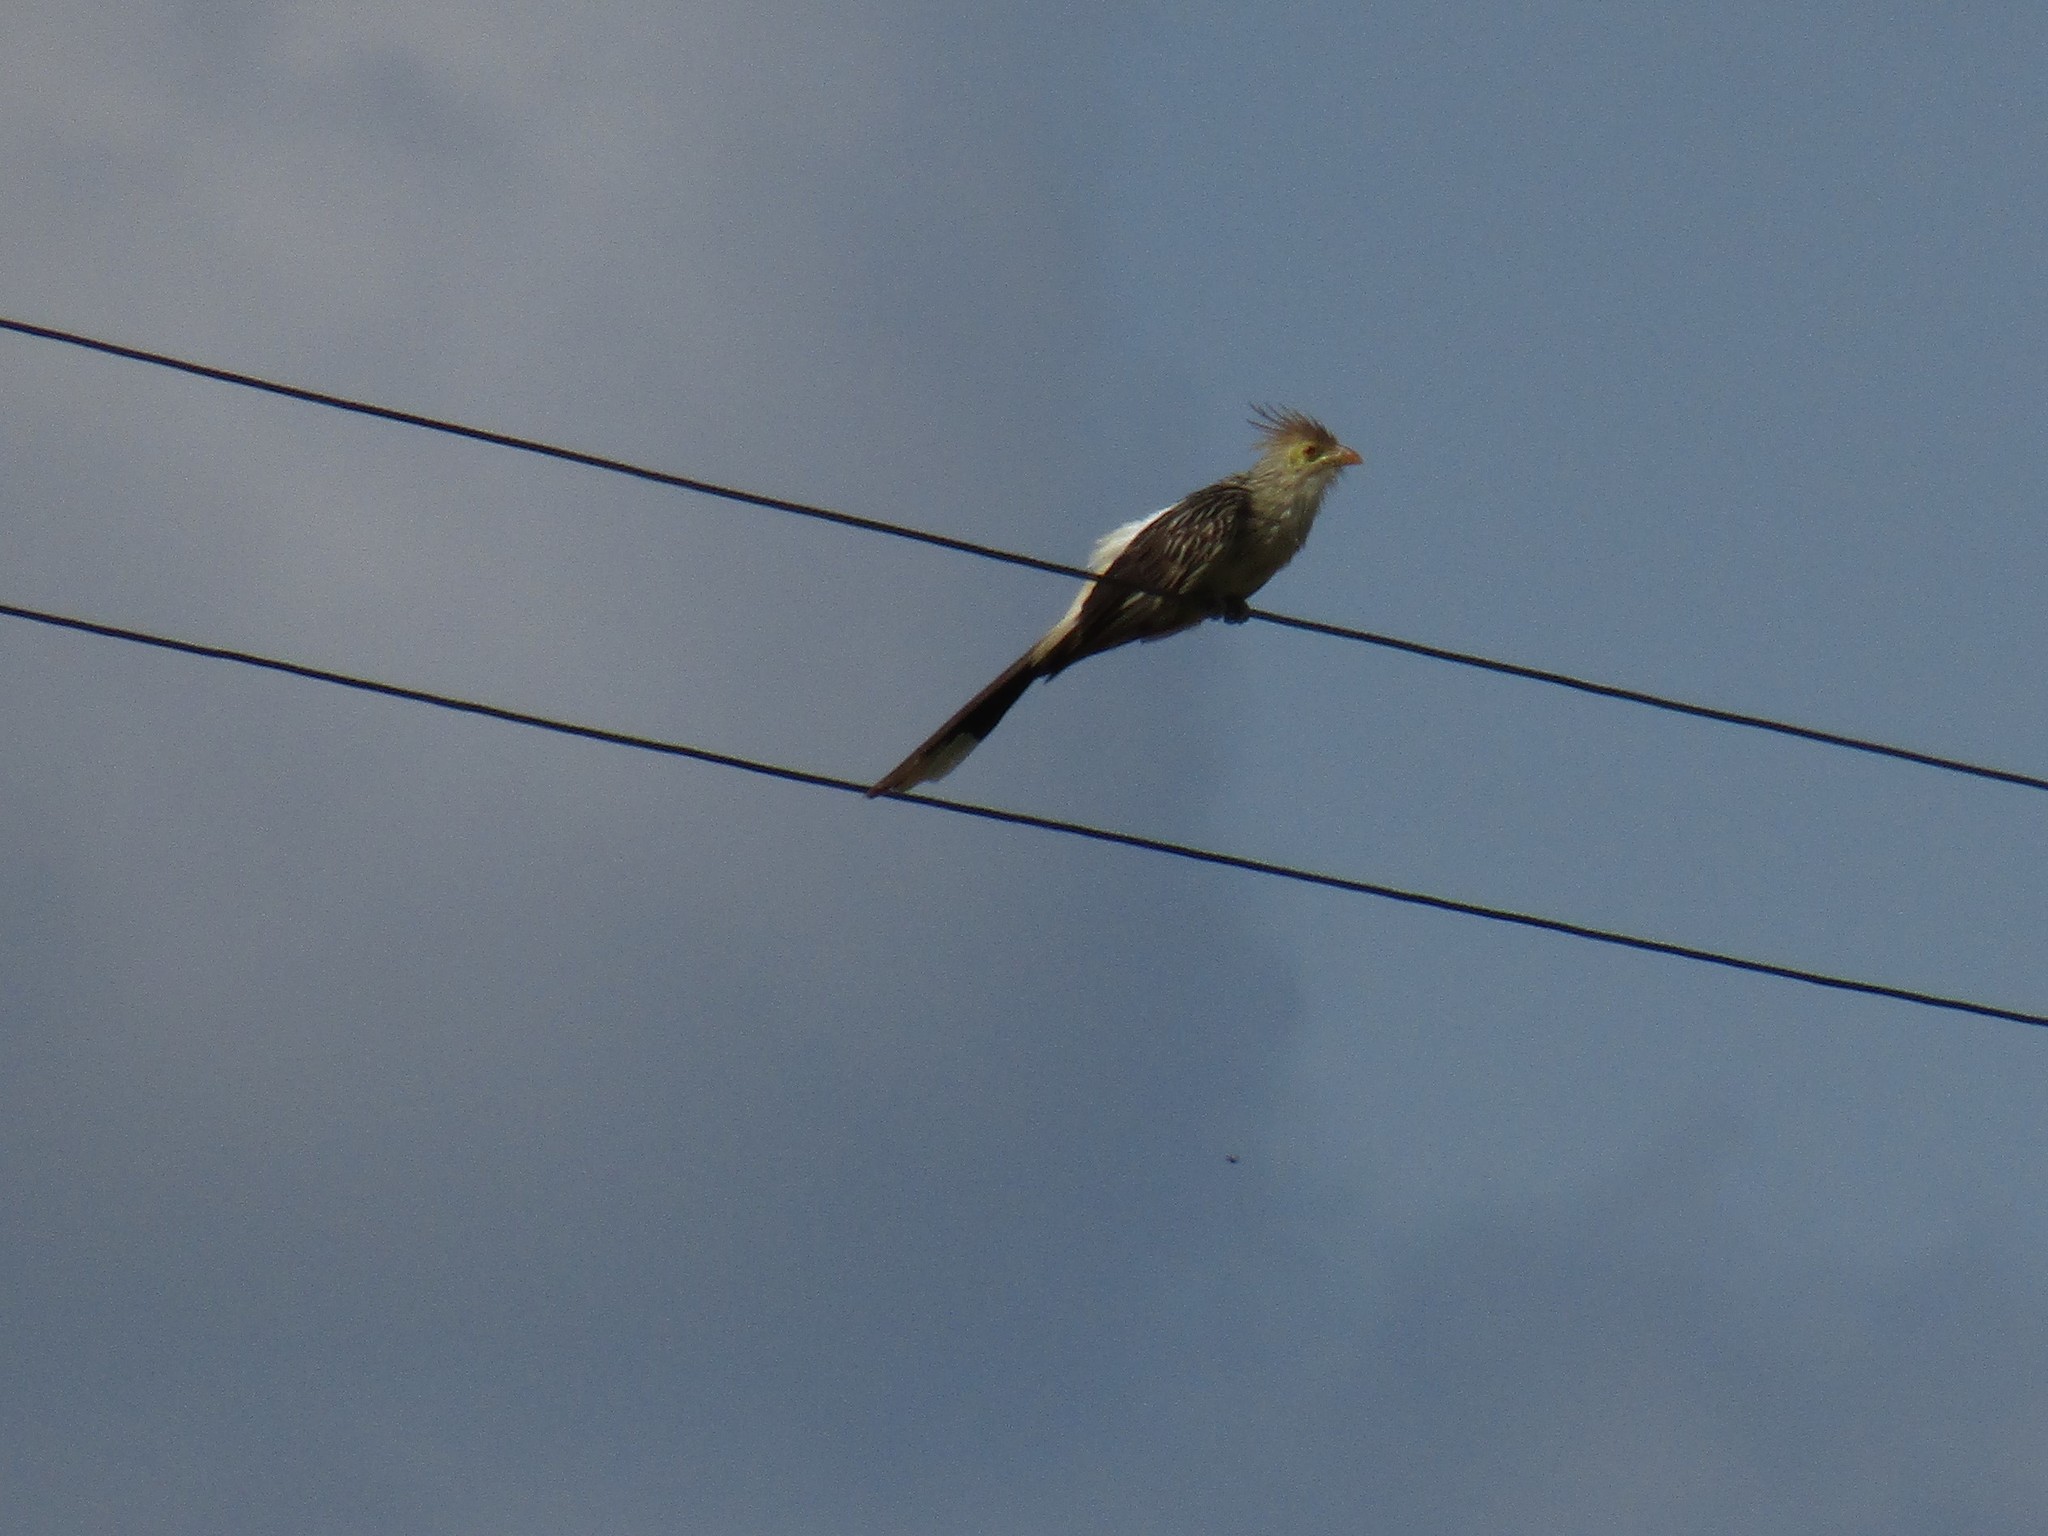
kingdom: Animalia
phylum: Chordata
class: Aves
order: Cuculiformes
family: Cuculidae
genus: Guira
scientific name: Guira guira
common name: Guira cuckoo
